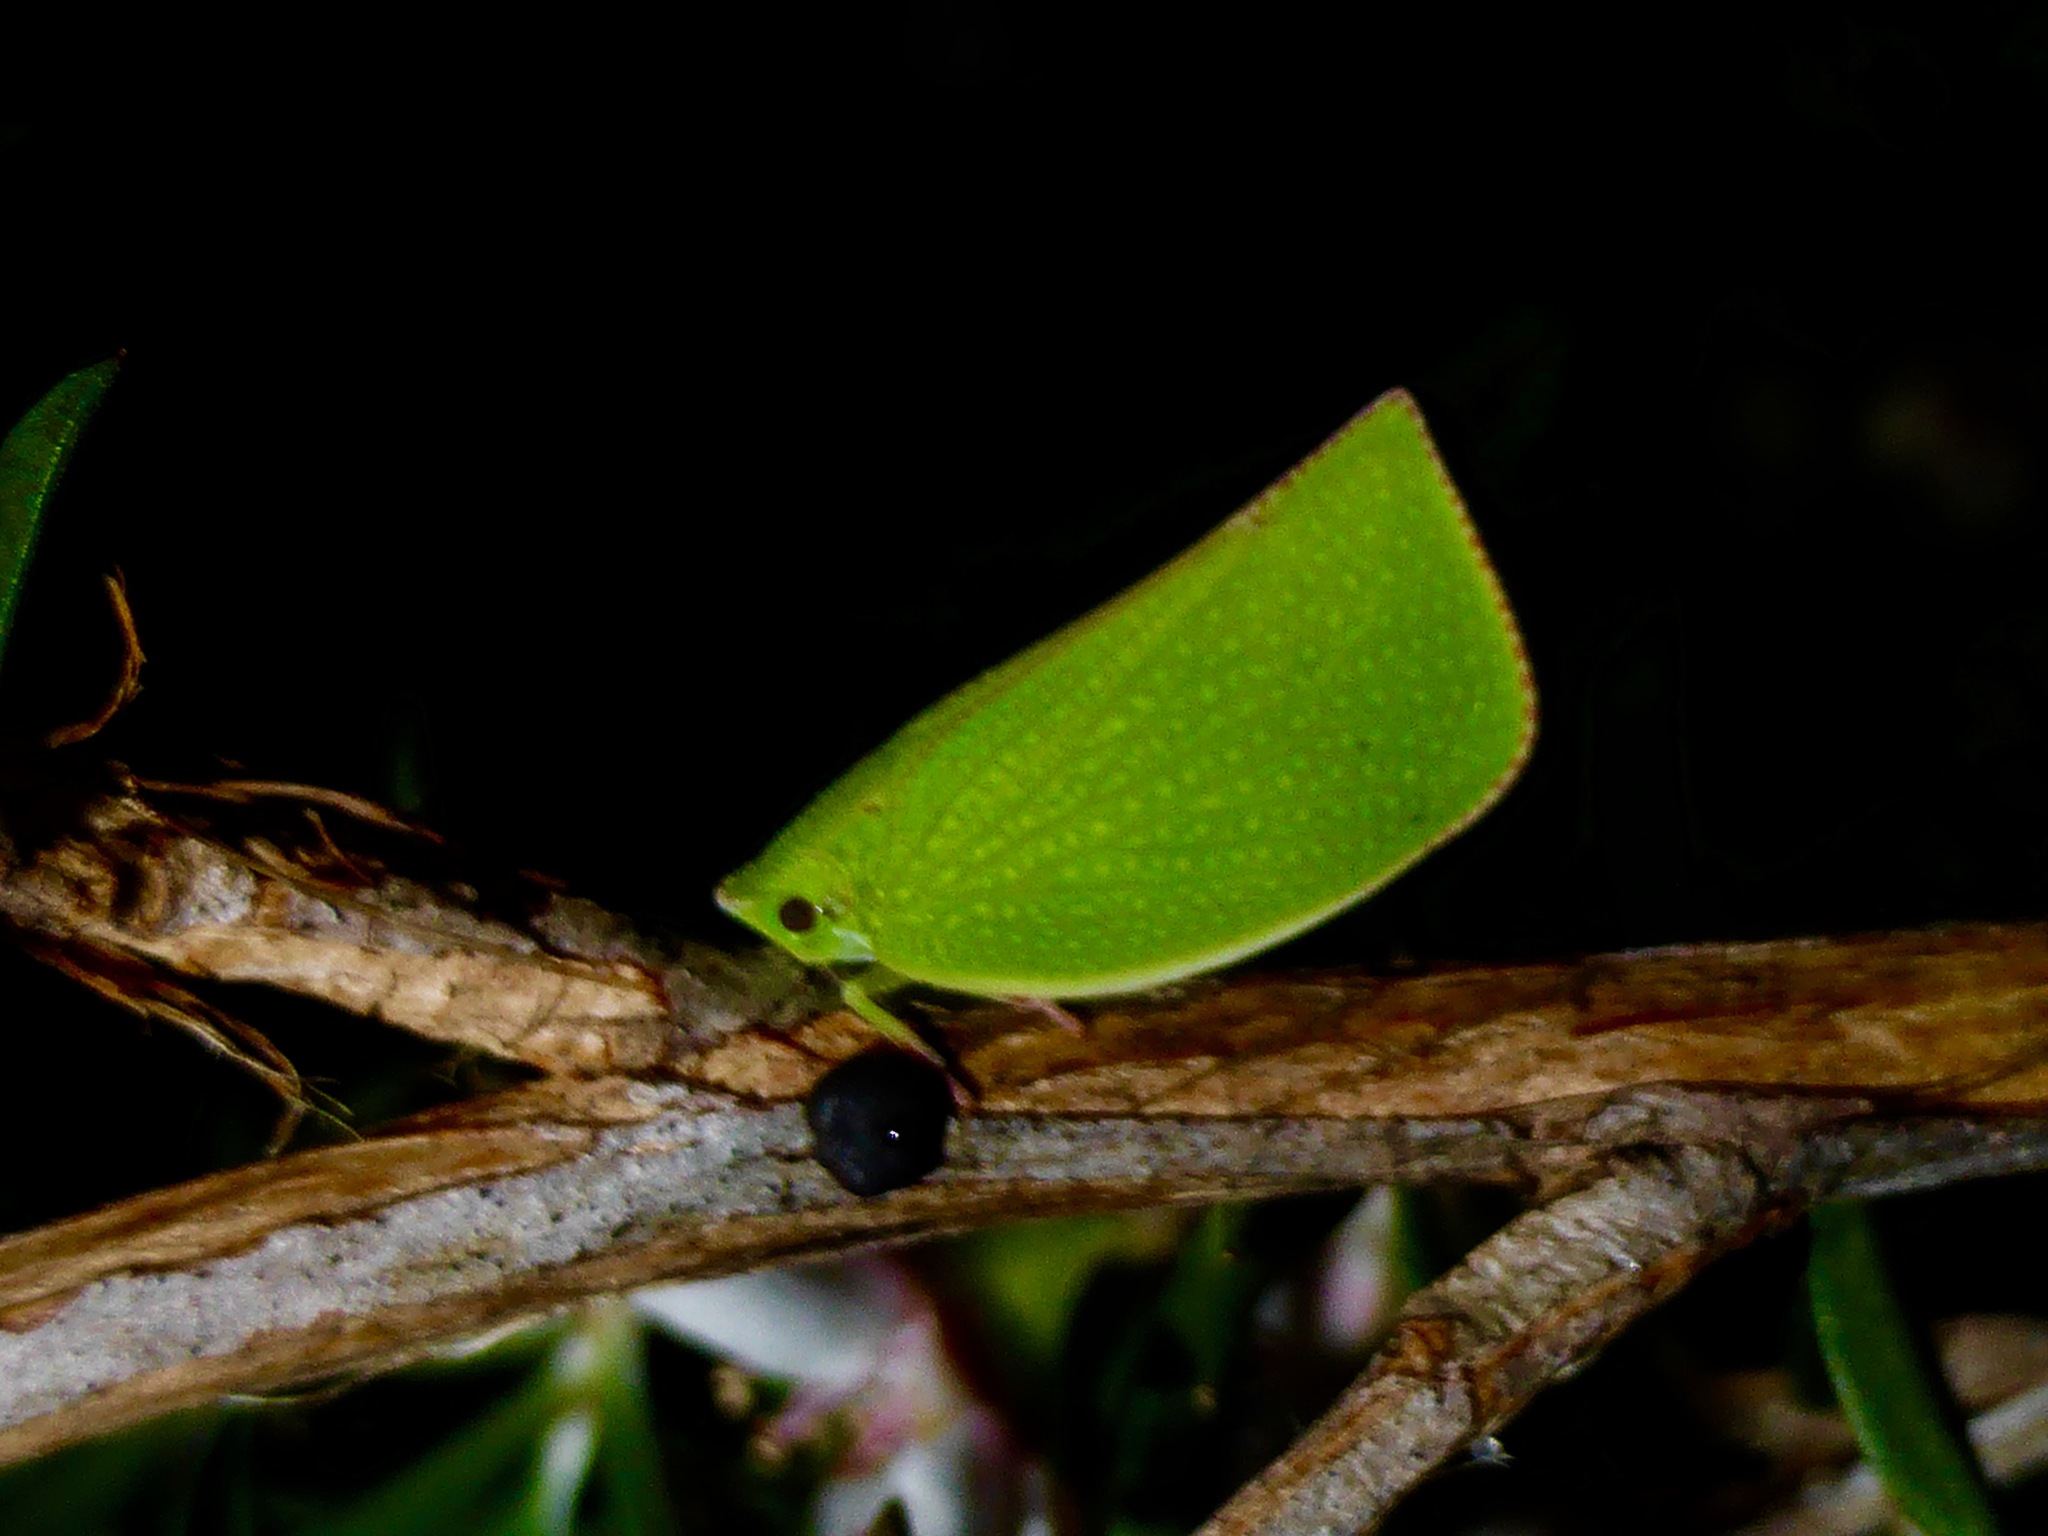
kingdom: Animalia
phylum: Arthropoda
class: Insecta
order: Hemiptera
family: Flatidae
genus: Siphanta
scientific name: Siphanta acuta
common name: Torpedo bug
